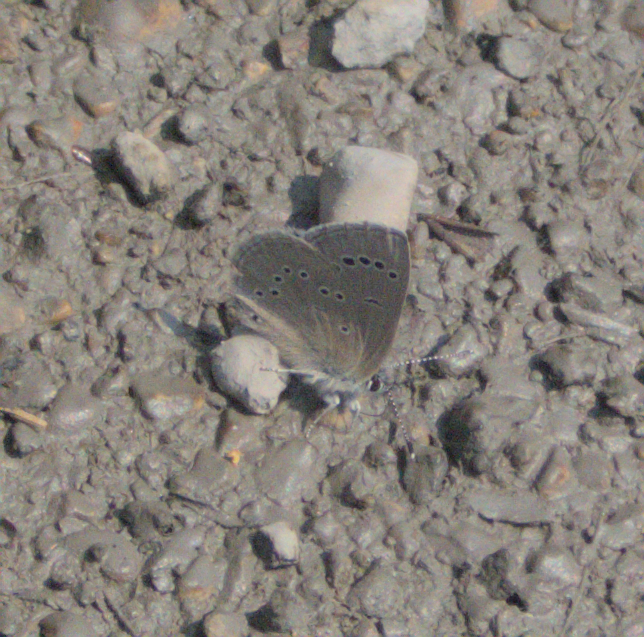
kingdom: Animalia
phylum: Arthropoda
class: Insecta
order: Lepidoptera
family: Lycaenidae
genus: Glaucopsyche
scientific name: Glaucopsyche lygdamus
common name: Silvery blue
